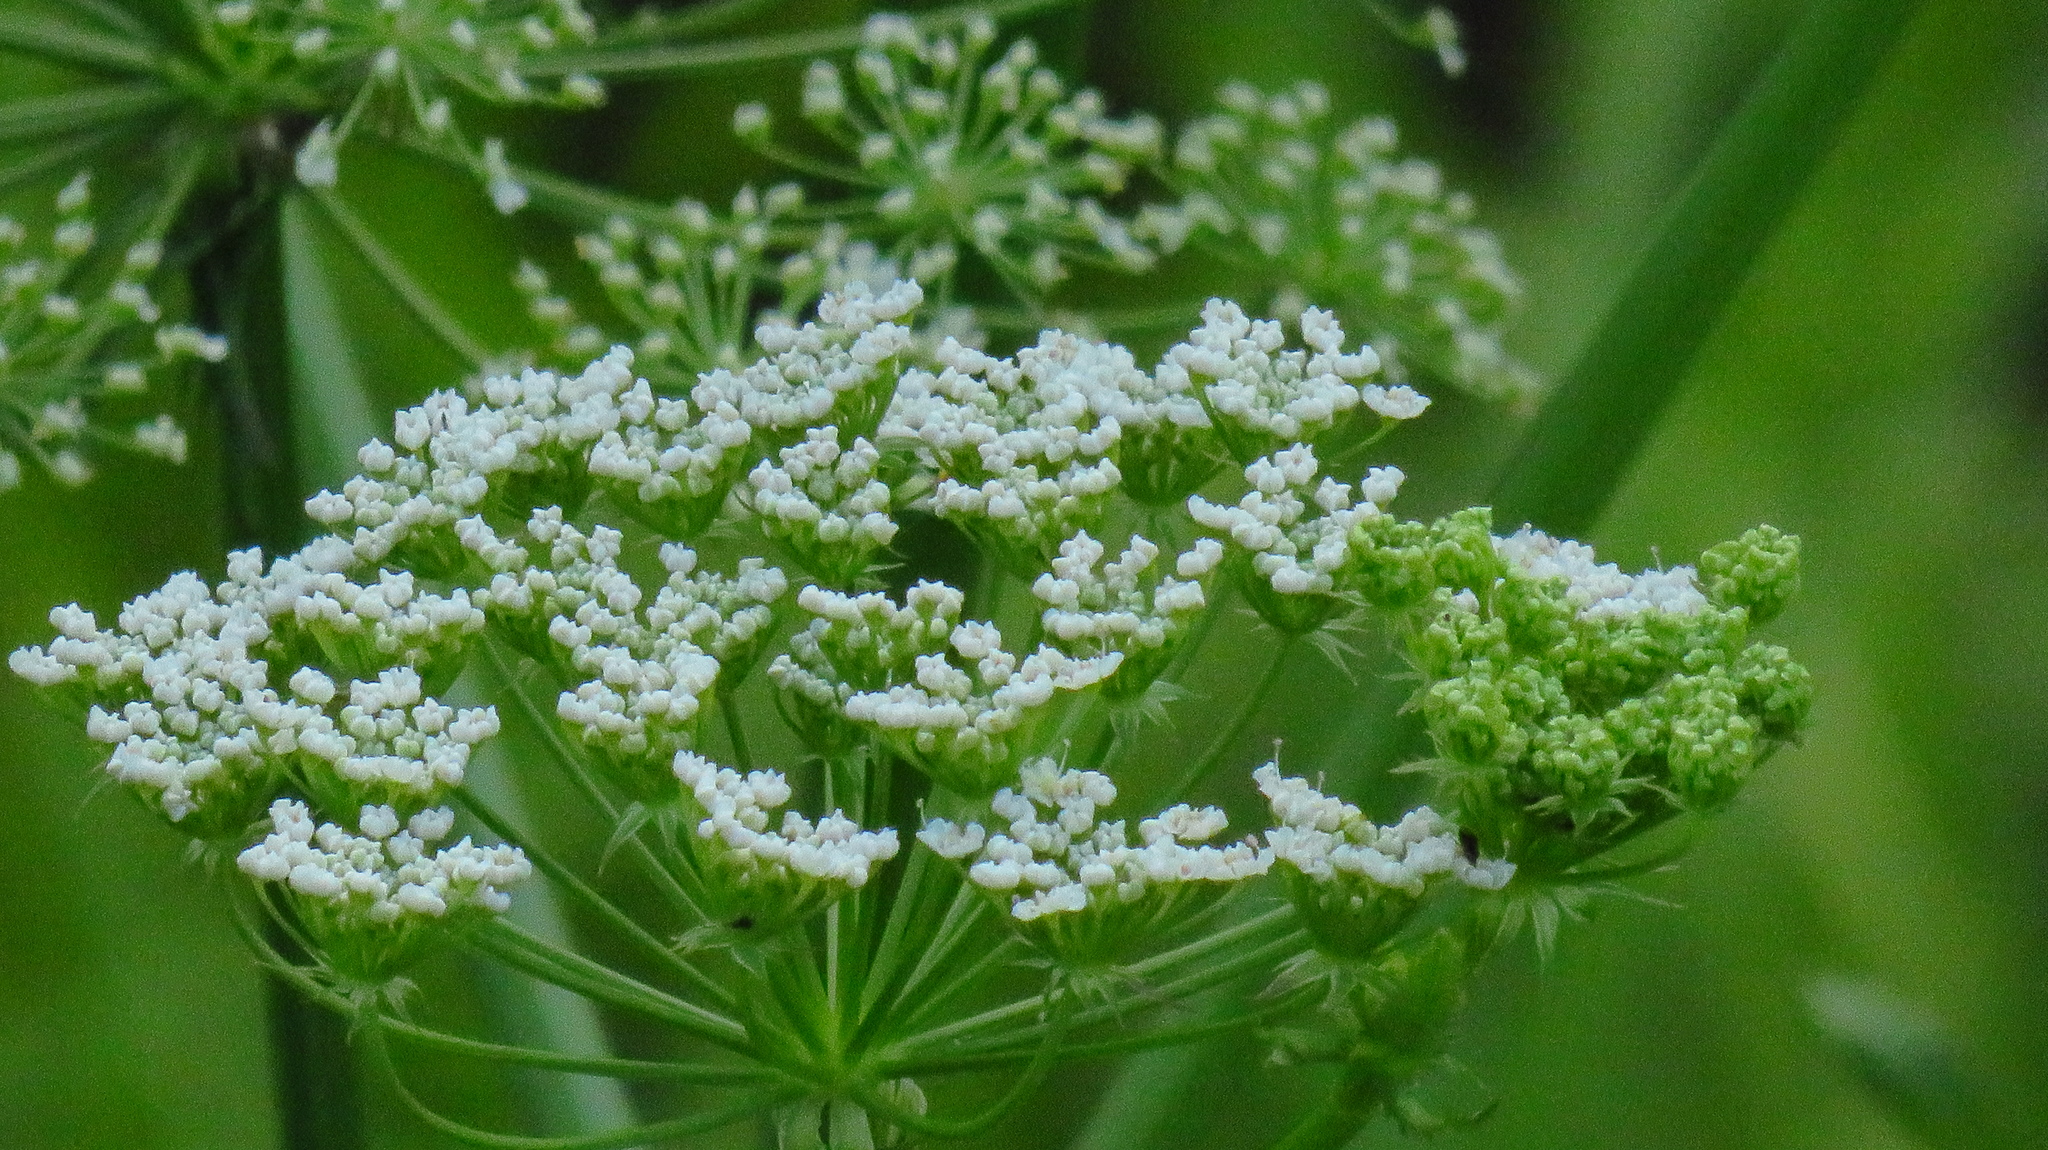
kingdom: Plantae
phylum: Tracheophyta
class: Magnoliopsida
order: Apiales
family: Apiaceae
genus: Sium
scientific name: Sium latifolium
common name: Greater water-parsnip
